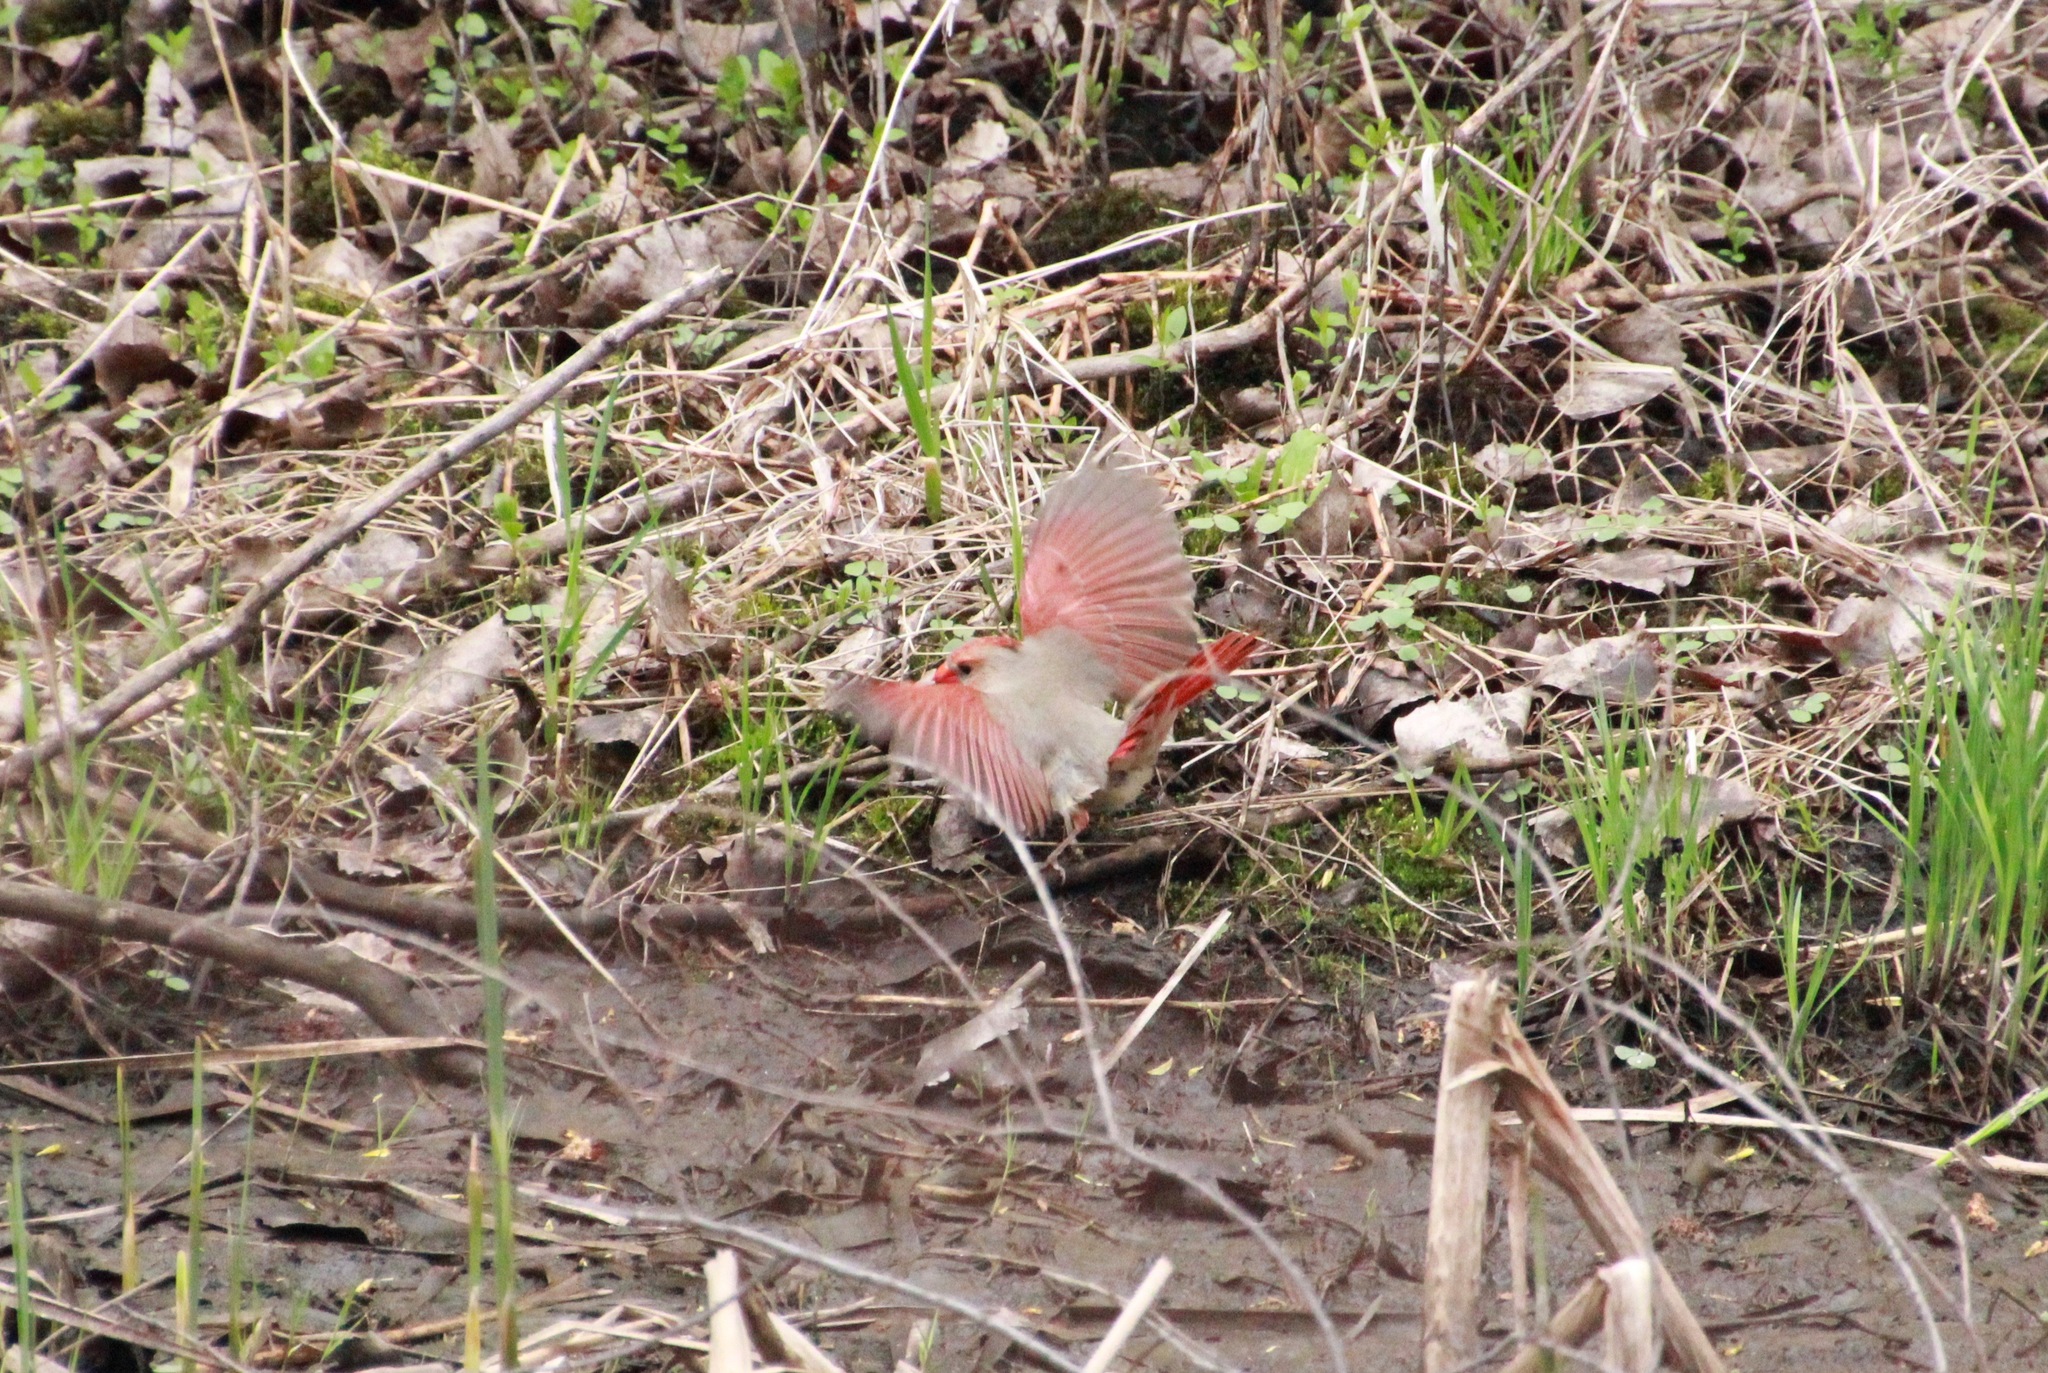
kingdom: Animalia
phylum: Chordata
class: Aves
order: Passeriformes
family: Cardinalidae
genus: Cardinalis
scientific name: Cardinalis cardinalis
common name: Northern cardinal
